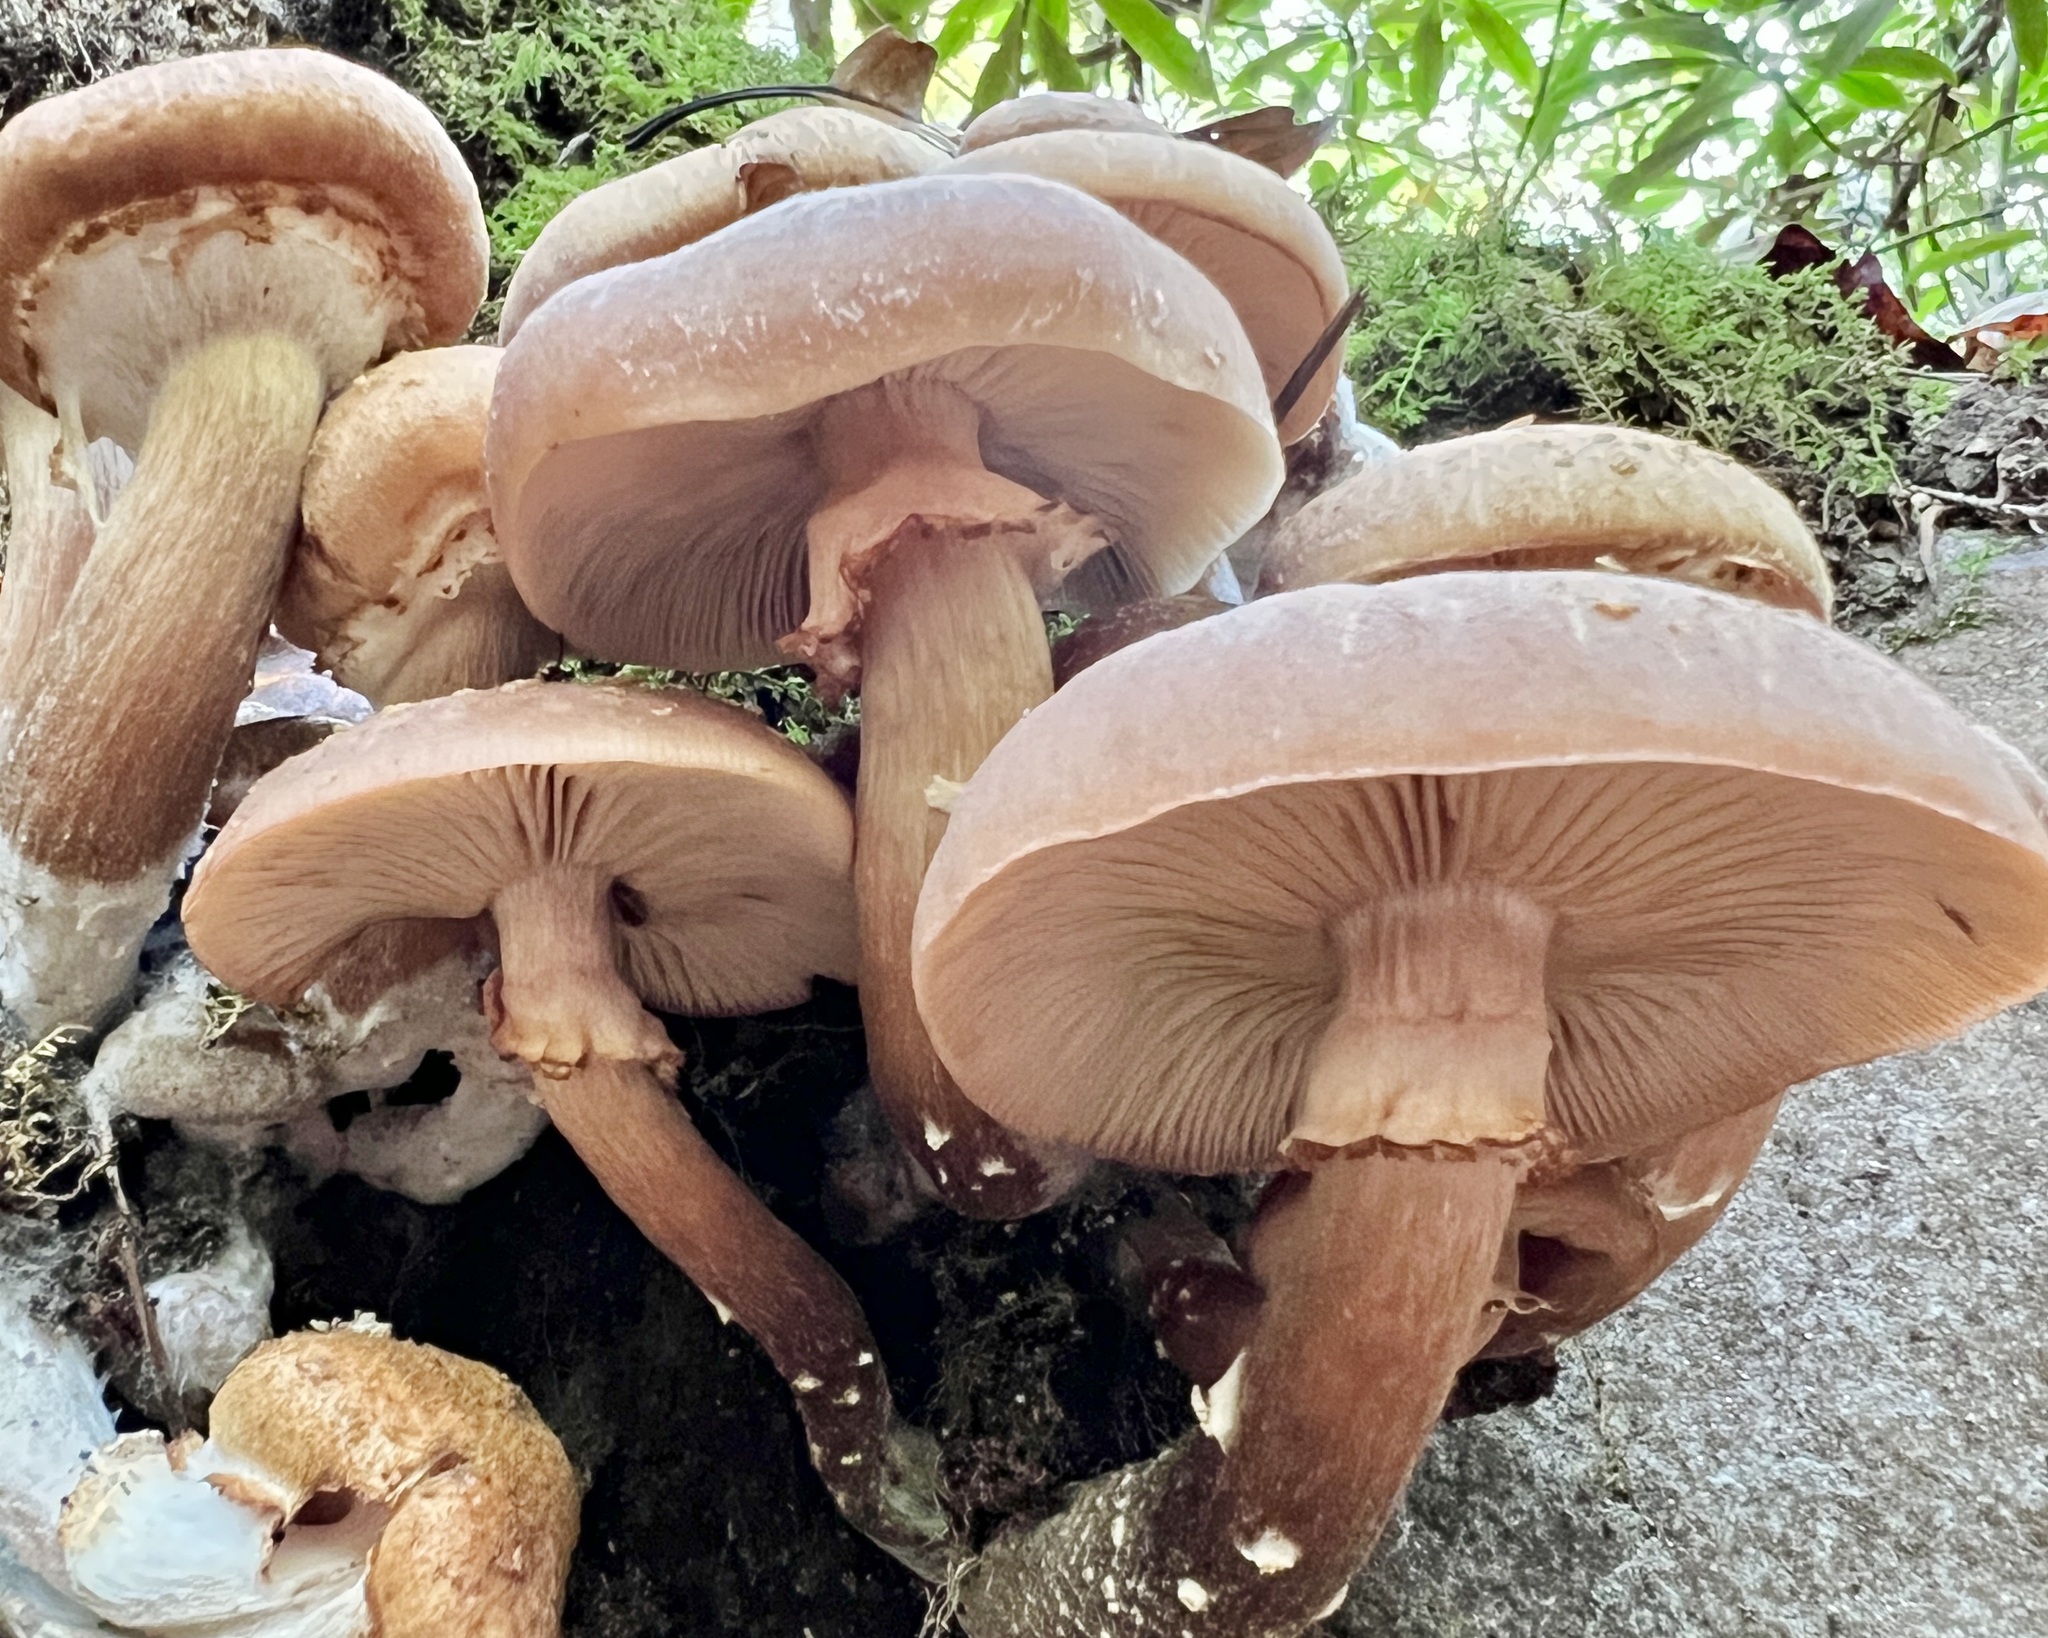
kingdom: Fungi
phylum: Basidiomycota
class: Agaricomycetes
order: Agaricales
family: Physalacriaceae
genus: Armillaria
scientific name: Armillaria mellea
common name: Honey fungus
